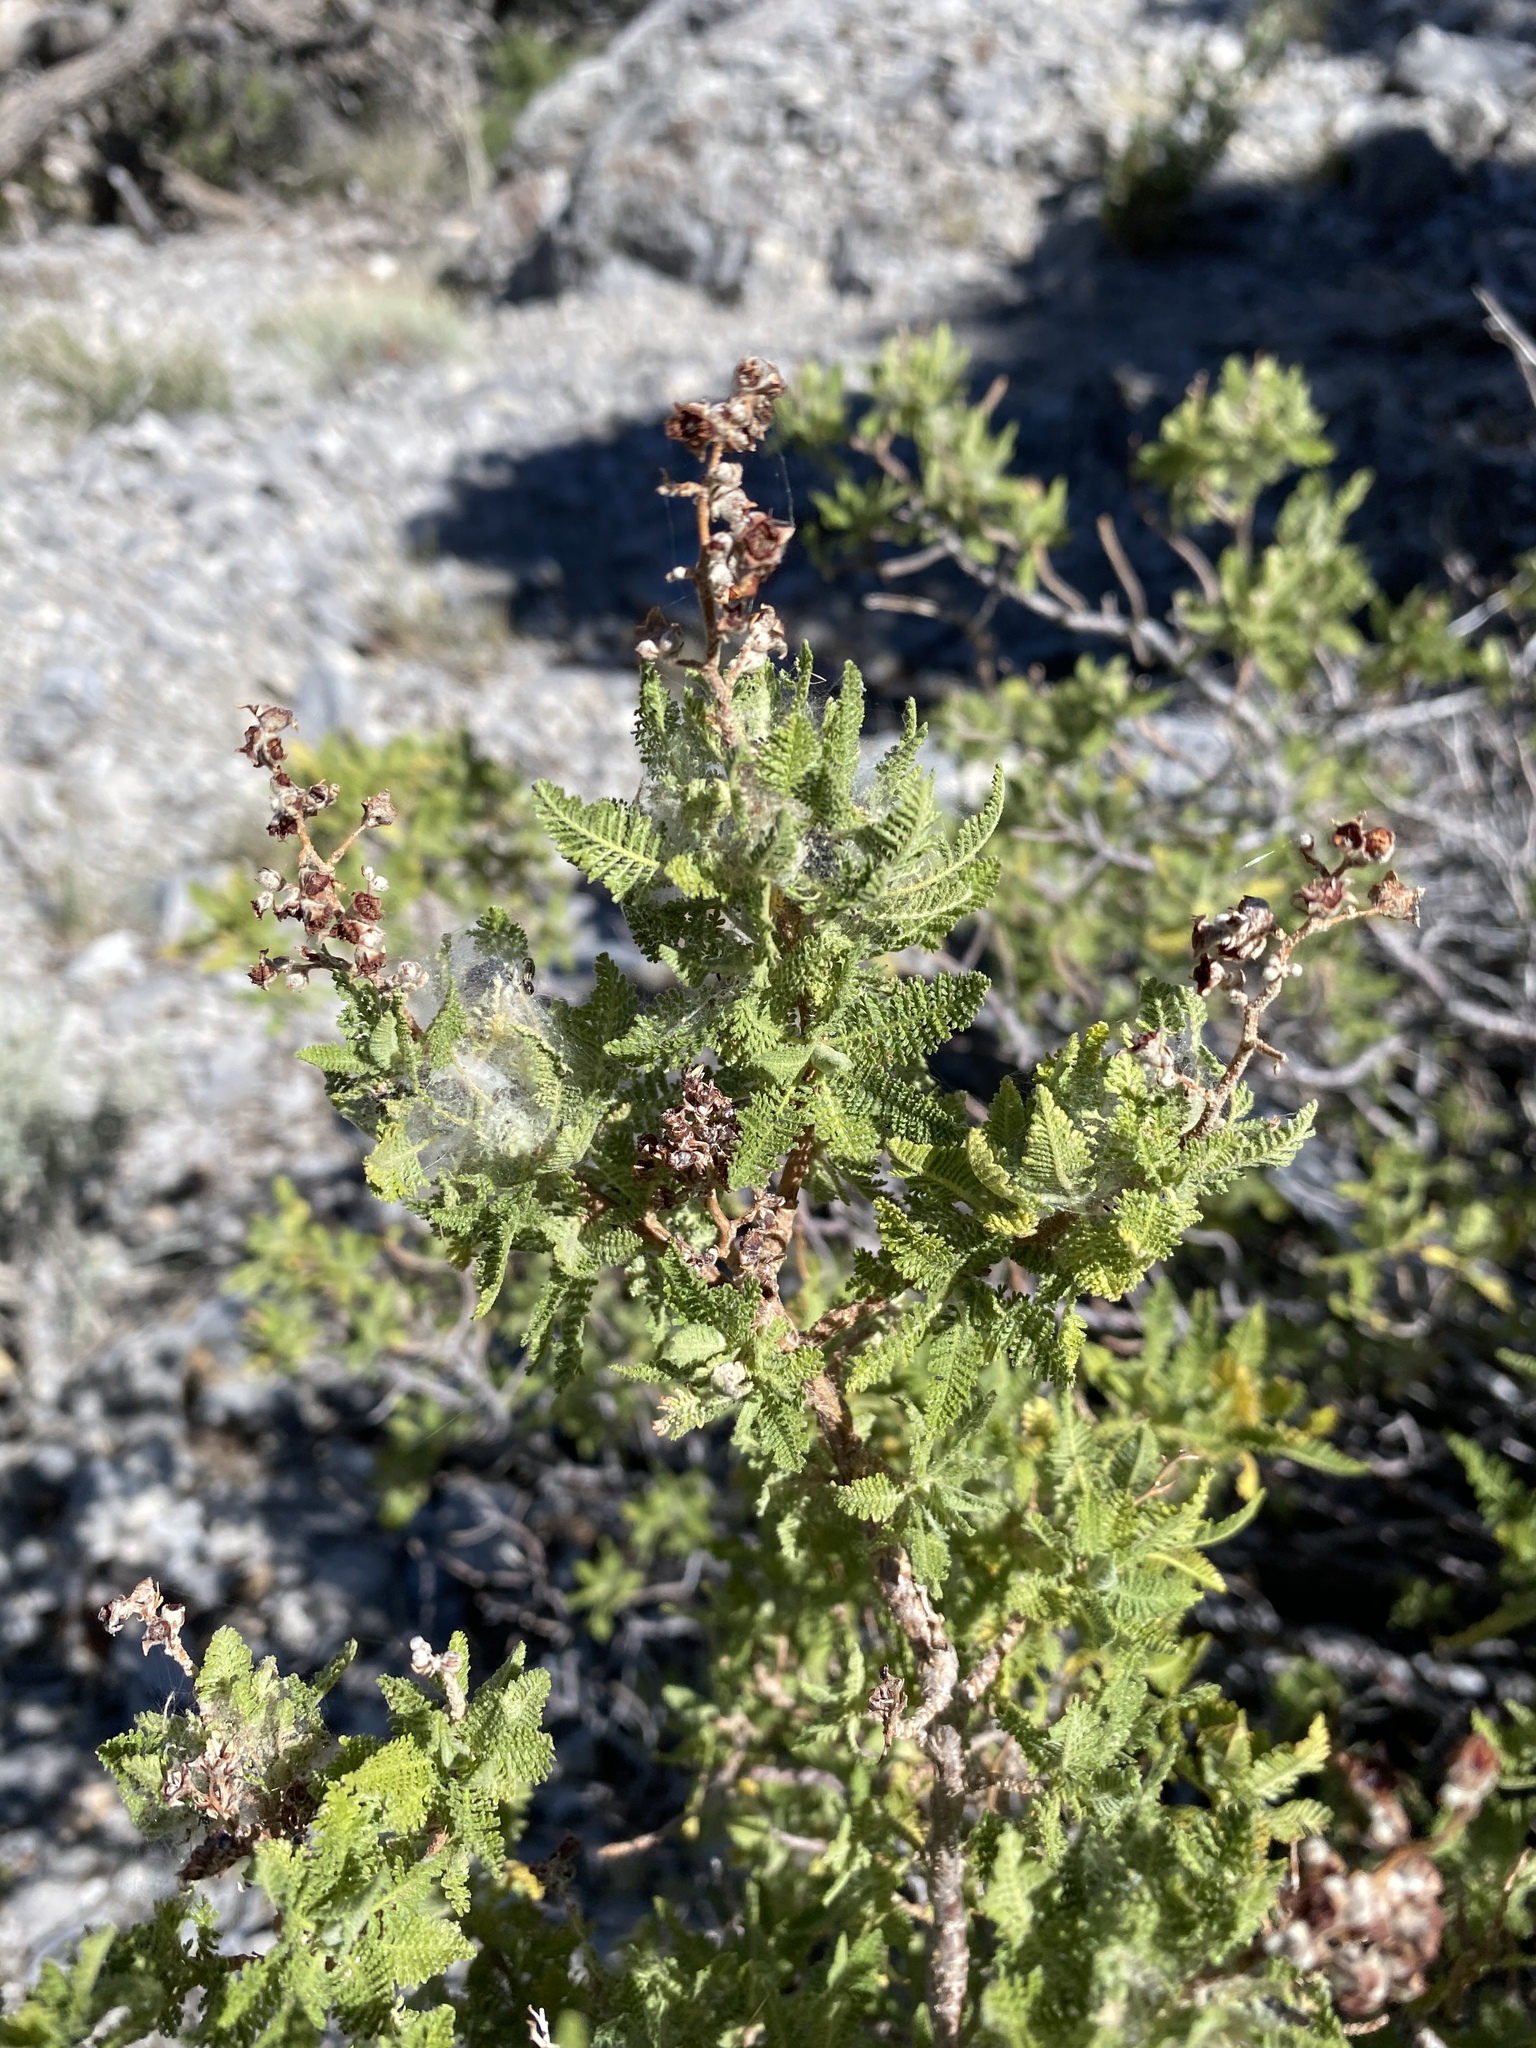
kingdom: Plantae
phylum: Tracheophyta
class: Magnoliopsida
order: Rosales
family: Rosaceae
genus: Chamaebatiaria
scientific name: Chamaebatiaria millefolium
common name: Fernbush
